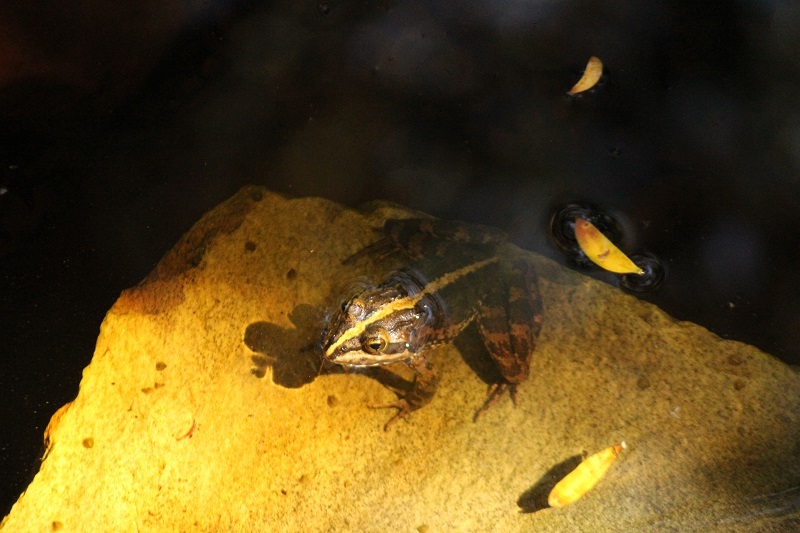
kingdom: Animalia
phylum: Chordata
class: Amphibia
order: Anura
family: Pyxicephalidae
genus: Amietia
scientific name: Amietia fuscigula
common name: Cape rana
